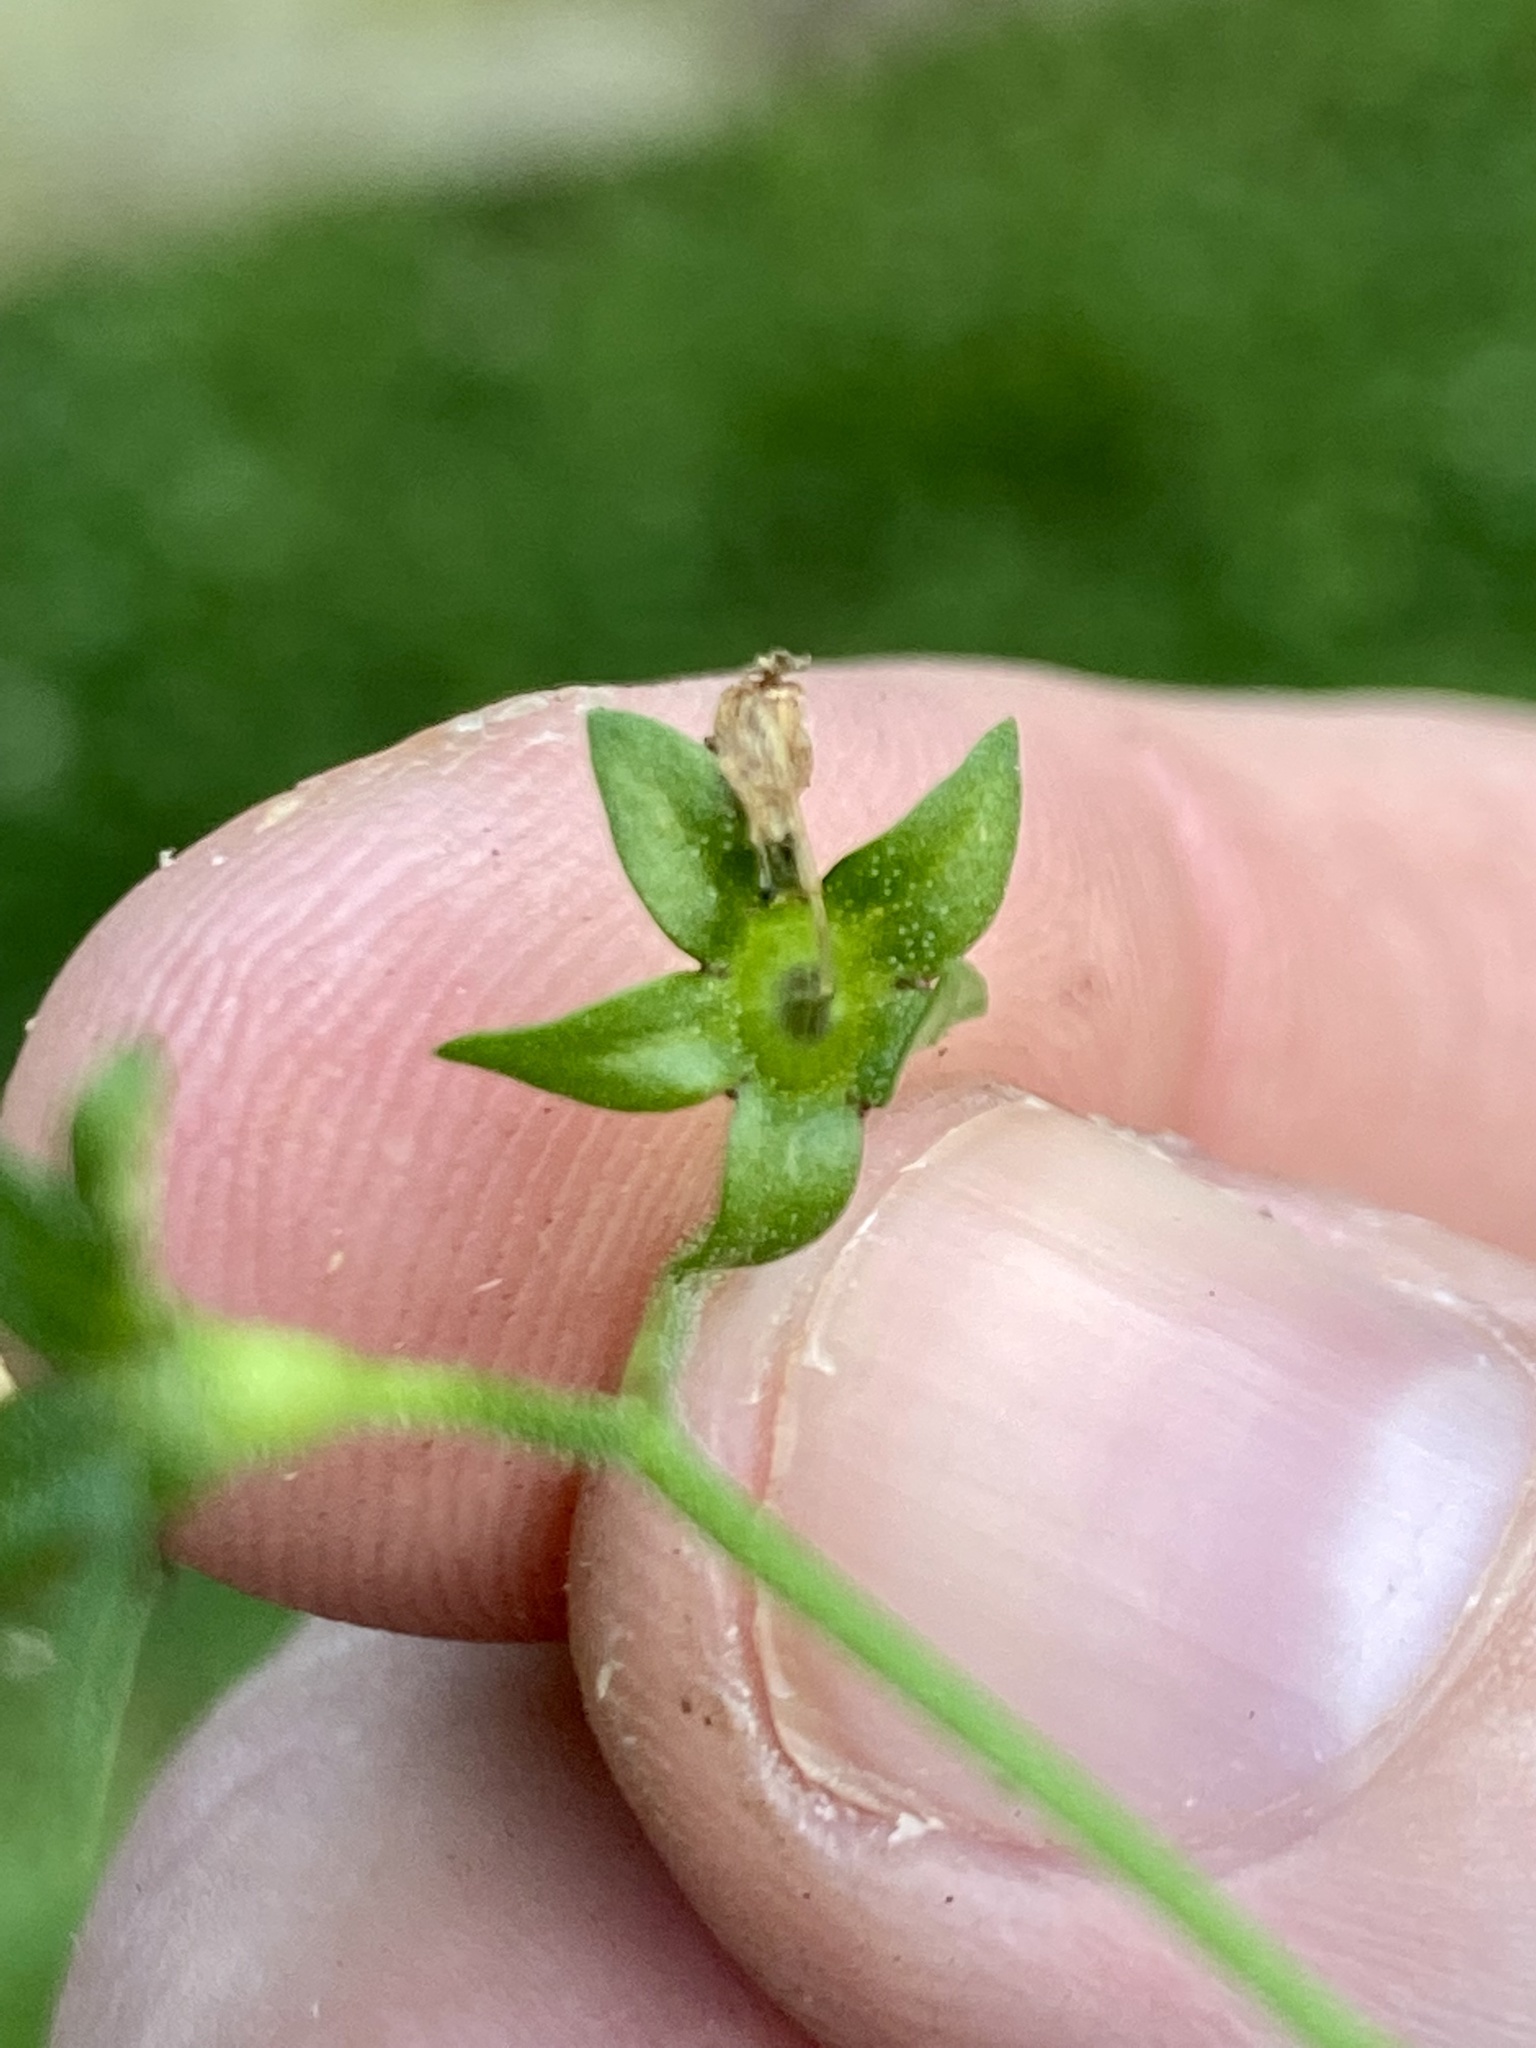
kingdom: Plantae
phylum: Tracheophyta
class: Magnoliopsida
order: Lamiales
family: Mazaceae
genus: Mazus
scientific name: Mazus pumilus
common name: Japanese mazus
